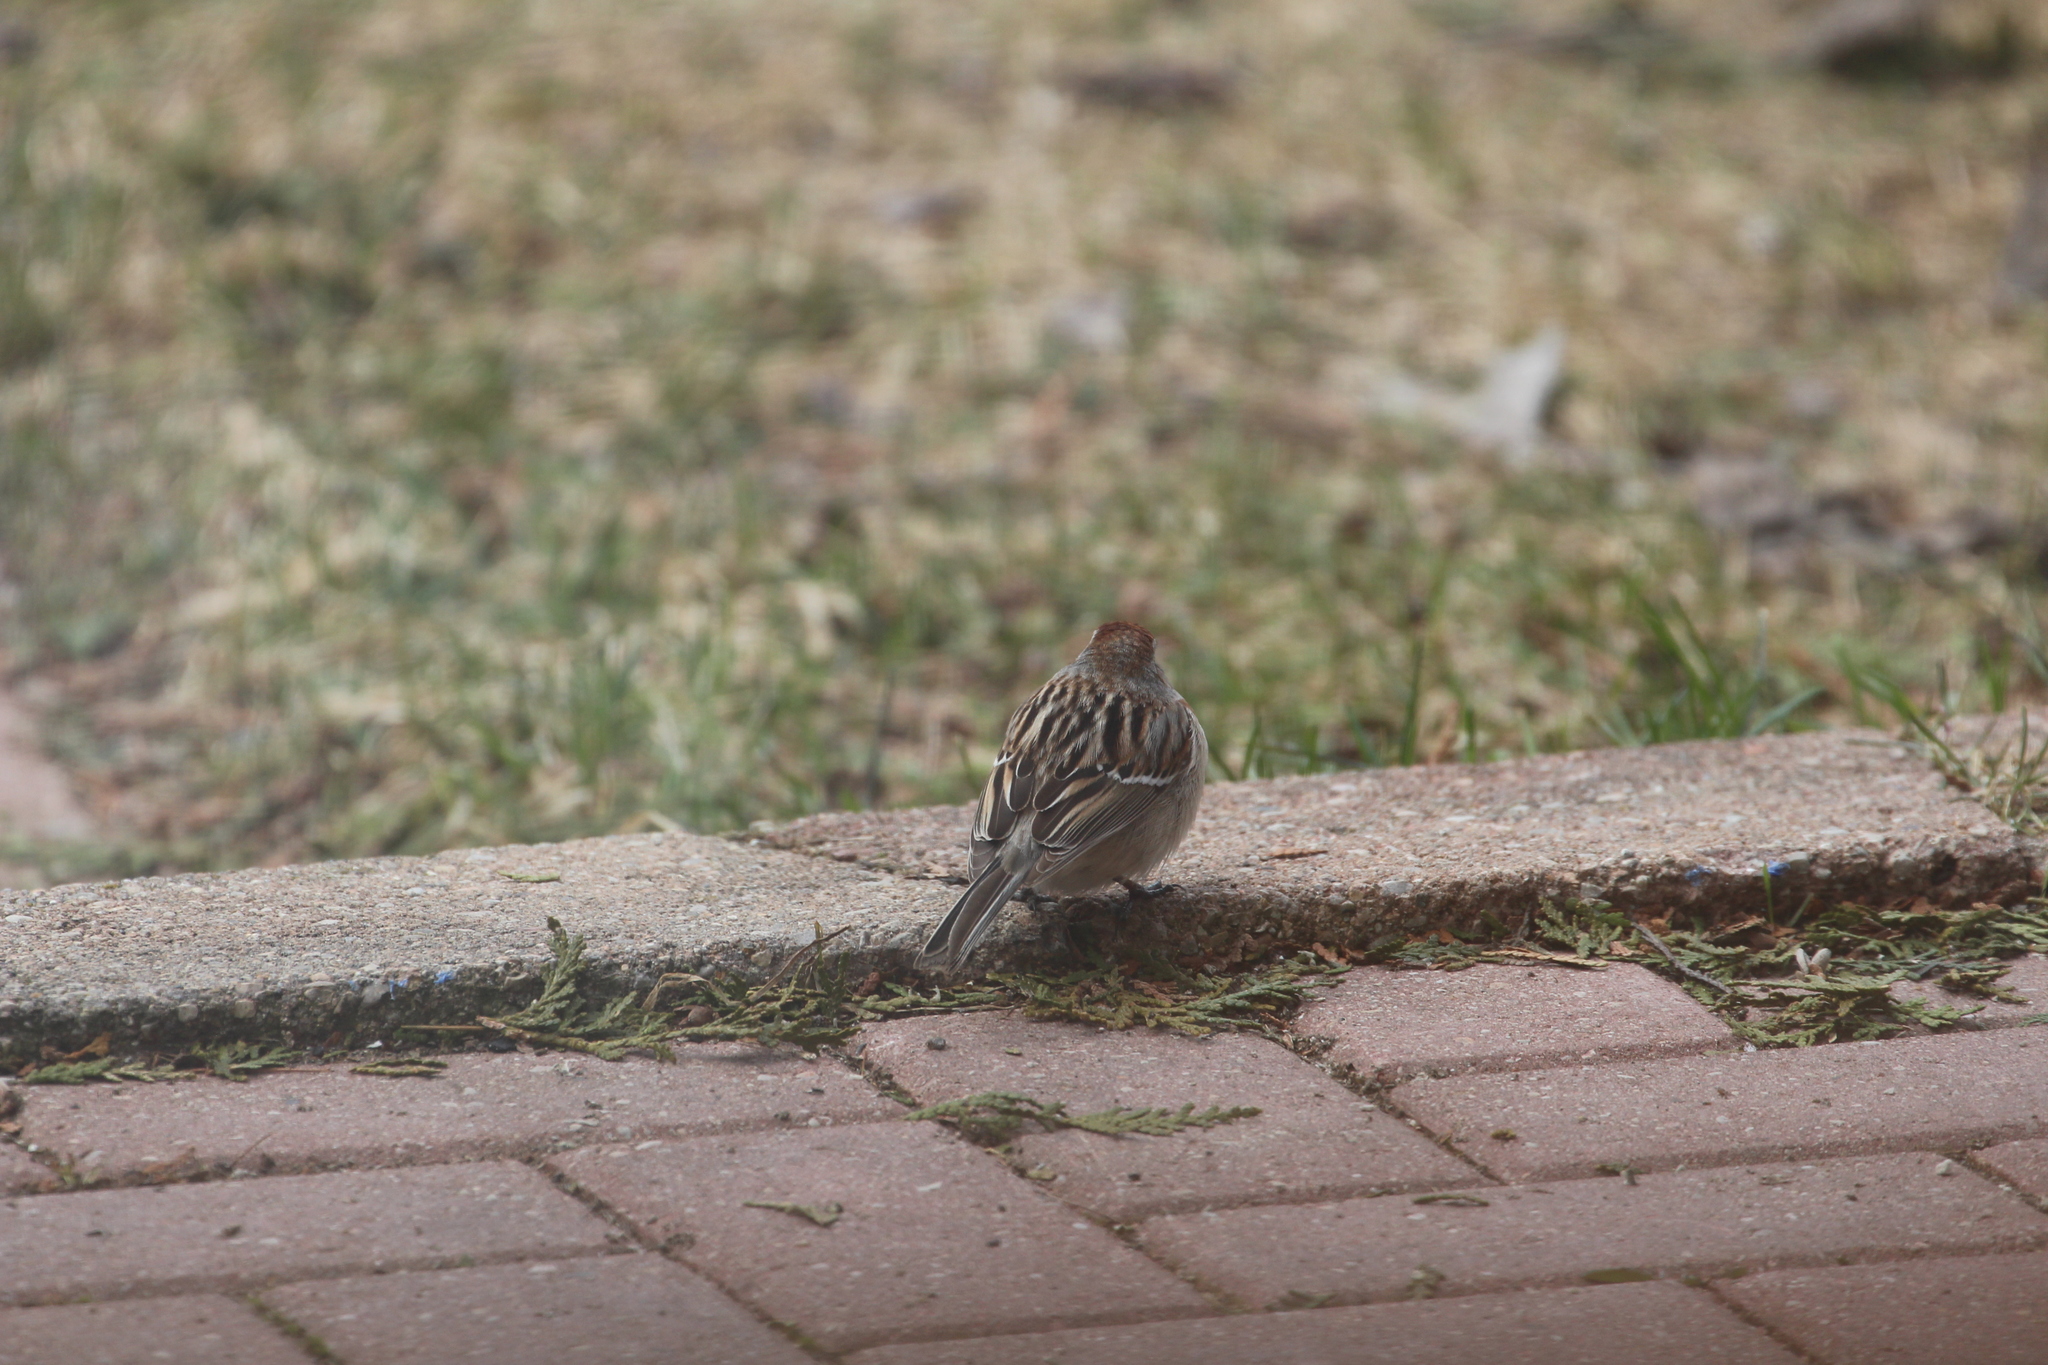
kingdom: Animalia
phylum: Chordata
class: Aves
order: Passeriformes
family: Passerellidae
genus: Spizelloides
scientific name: Spizelloides arborea
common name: American tree sparrow
